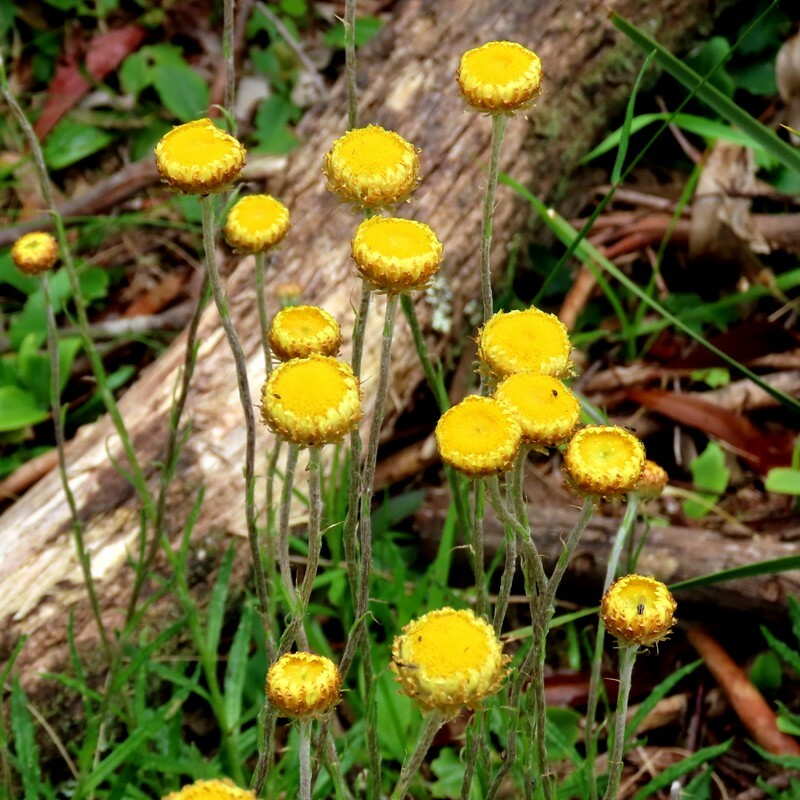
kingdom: Plantae
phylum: Tracheophyta
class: Magnoliopsida
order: Asterales
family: Asteraceae
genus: Coronidium
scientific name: Coronidium scorpioides
